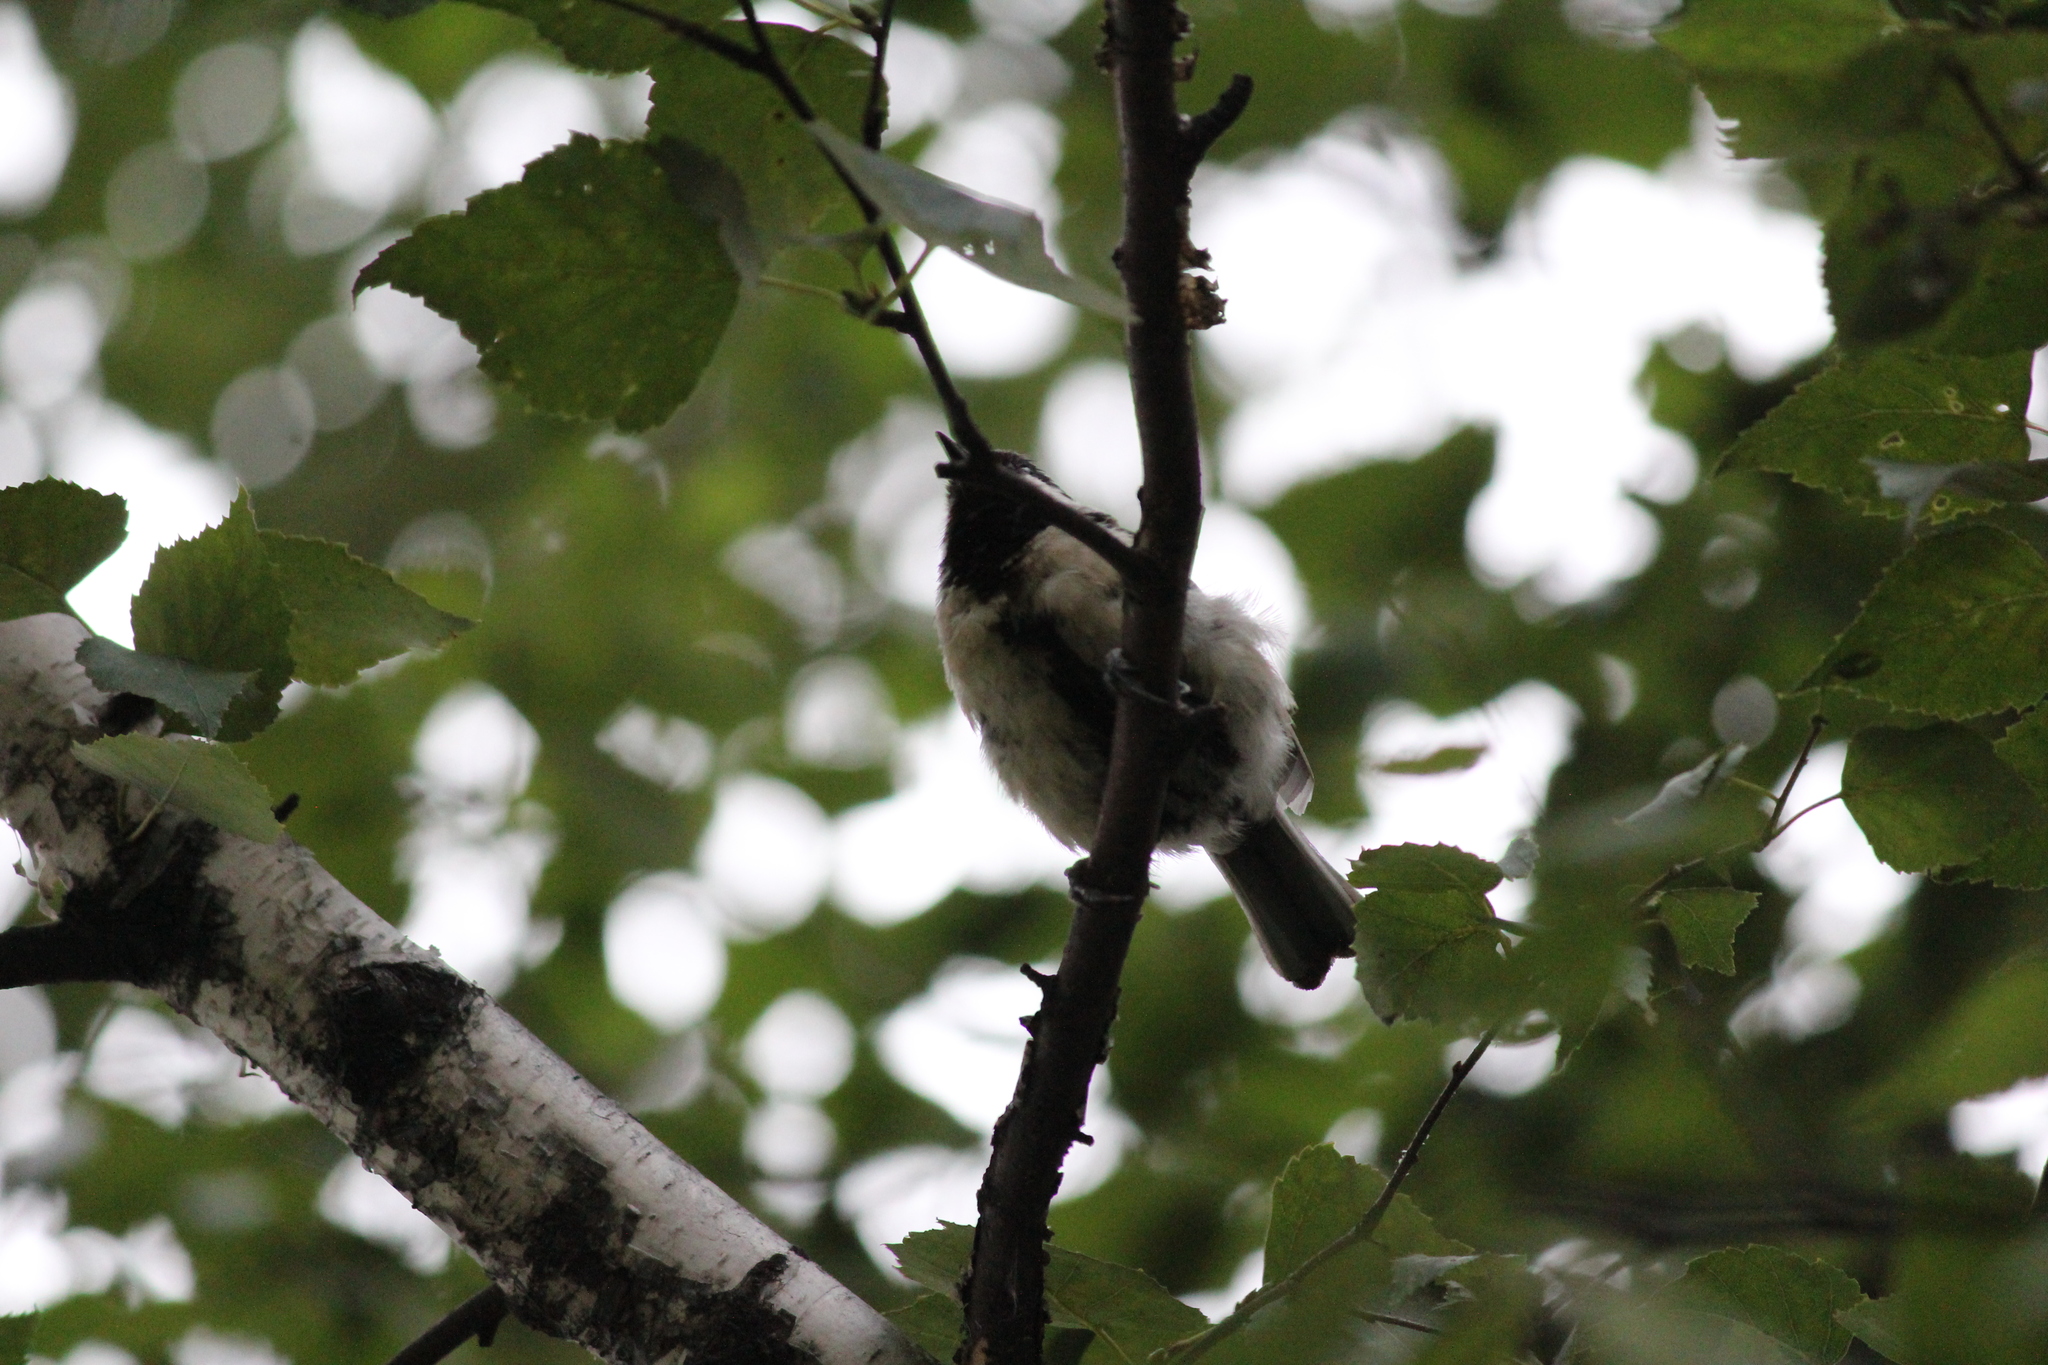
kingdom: Animalia
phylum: Chordata
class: Aves
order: Passeriformes
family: Paridae
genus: Parus
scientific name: Parus major
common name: Great tit
